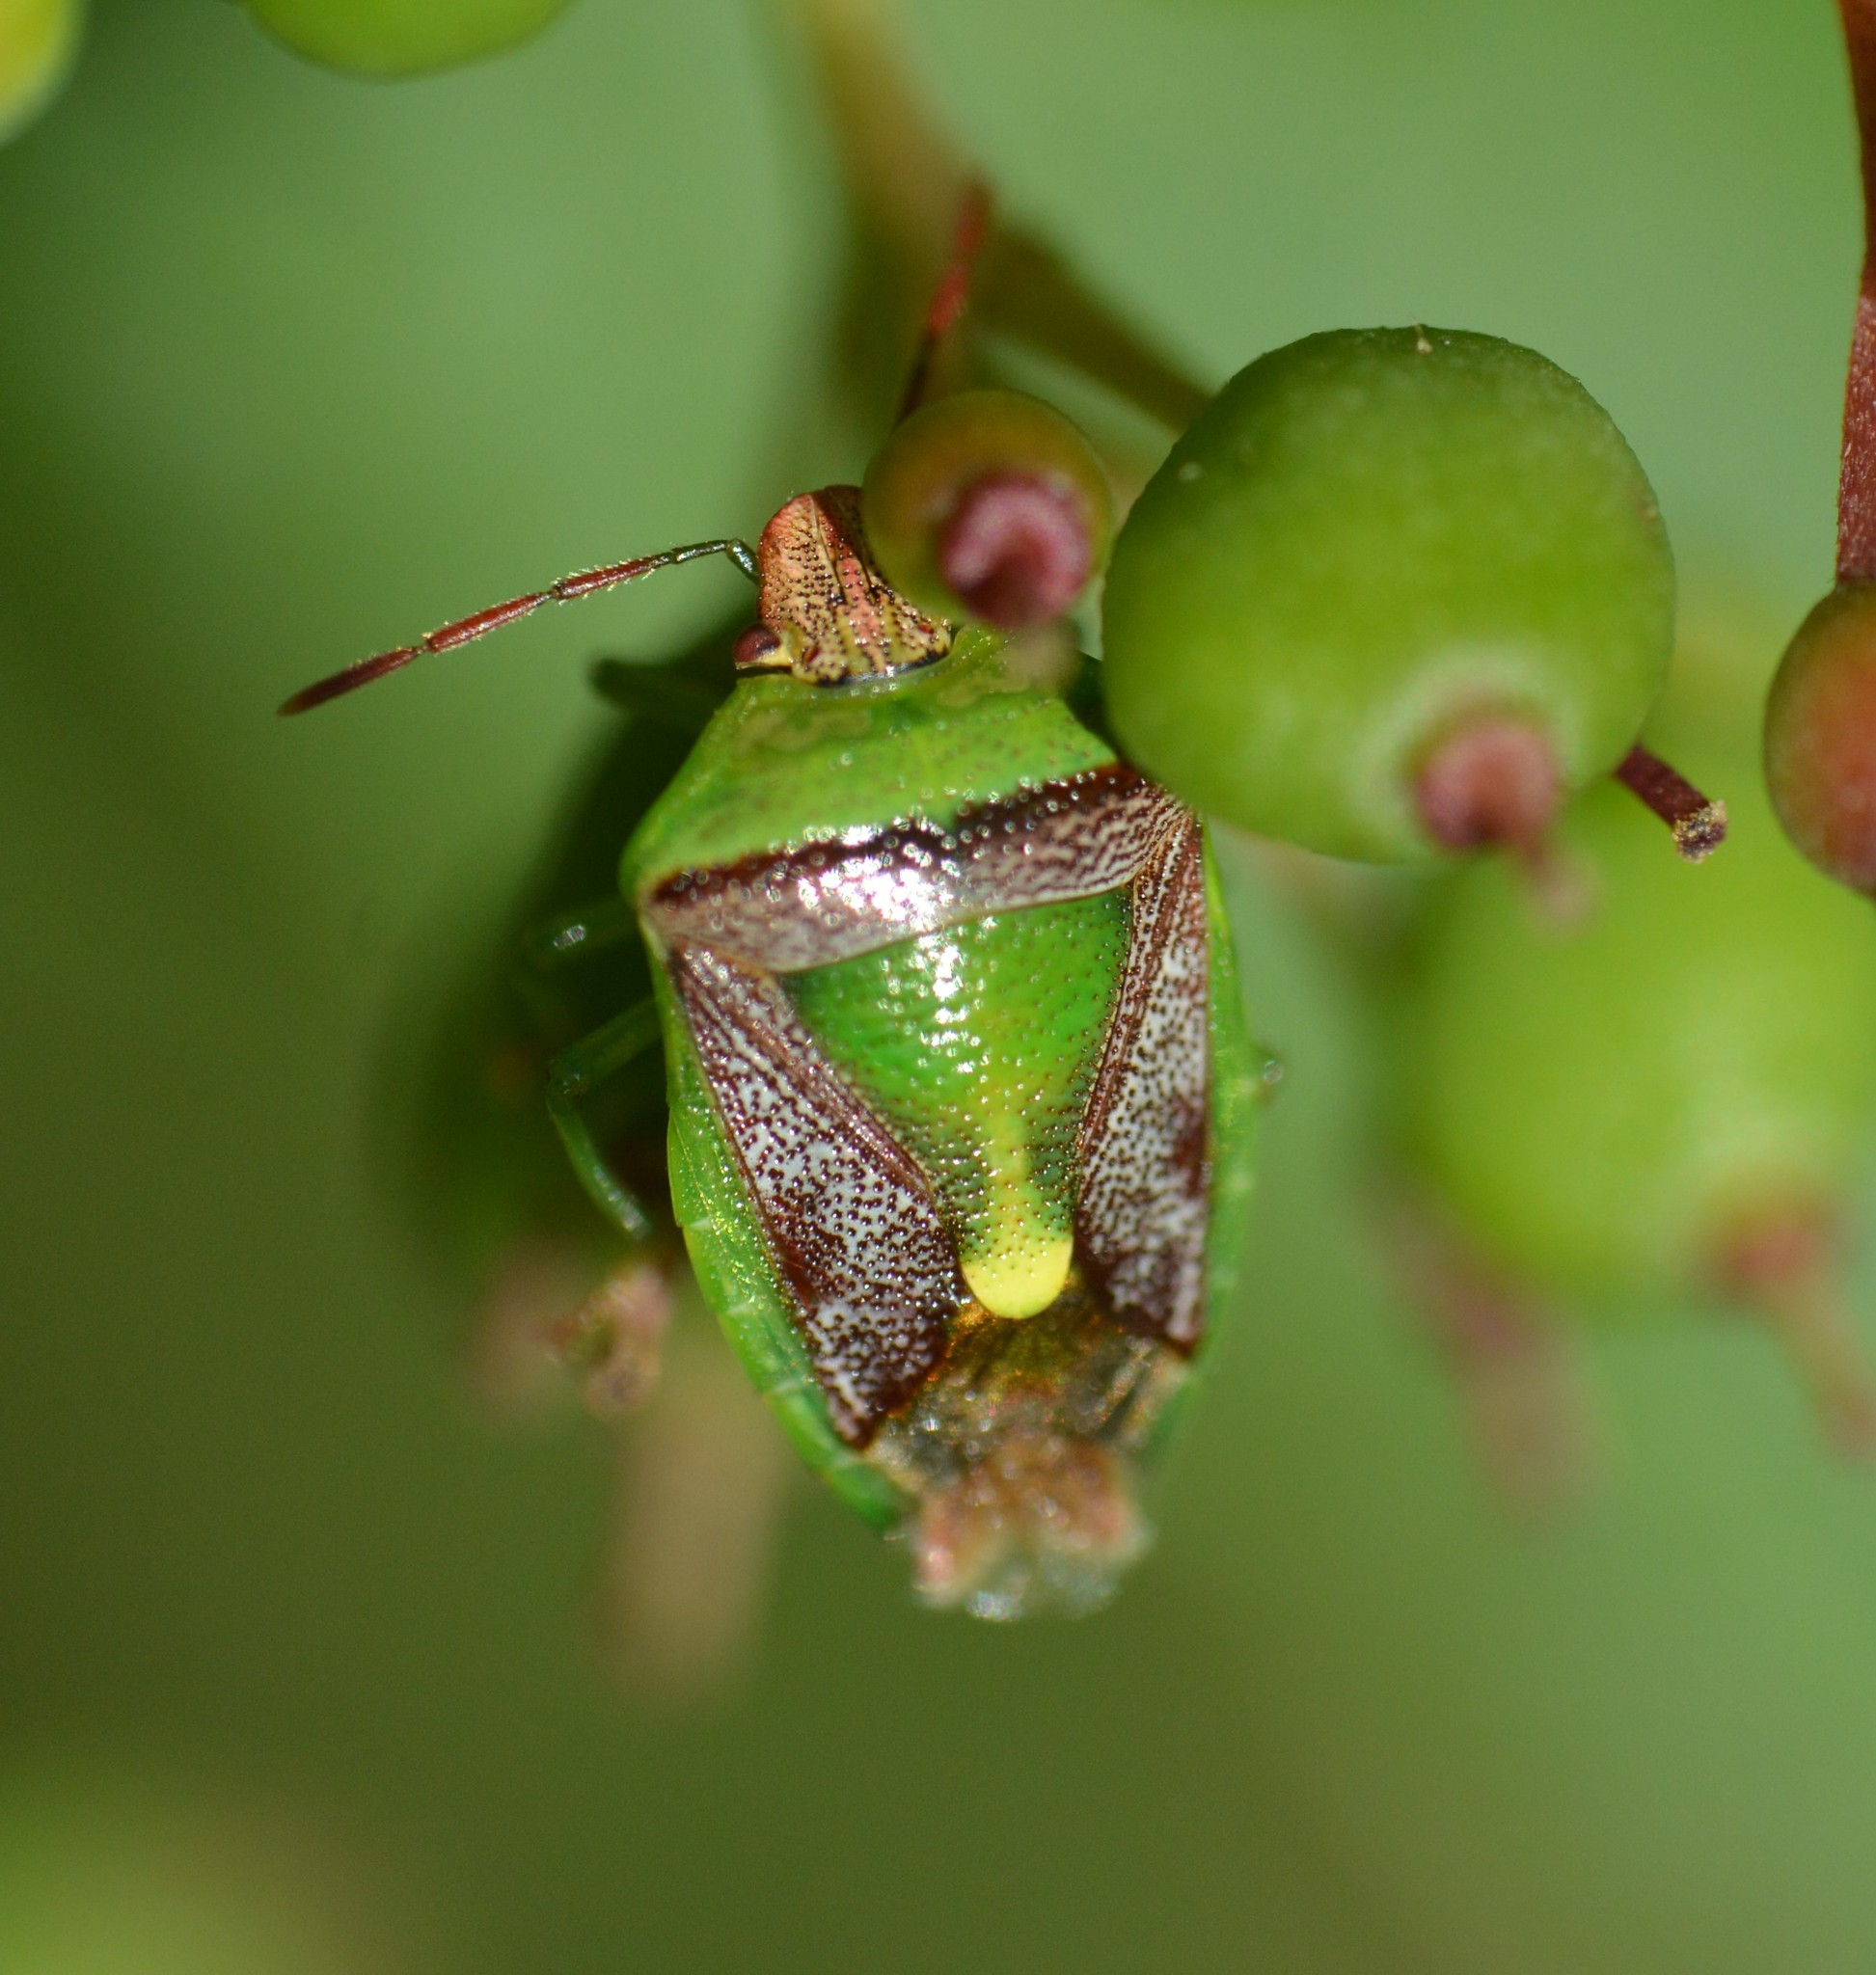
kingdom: Animalia
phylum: Arthropoda
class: Insecta
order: Hemiptera
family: Pentatomidae
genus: Banasa
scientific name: Banasa dimidiata
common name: Green burgundy stink bug
